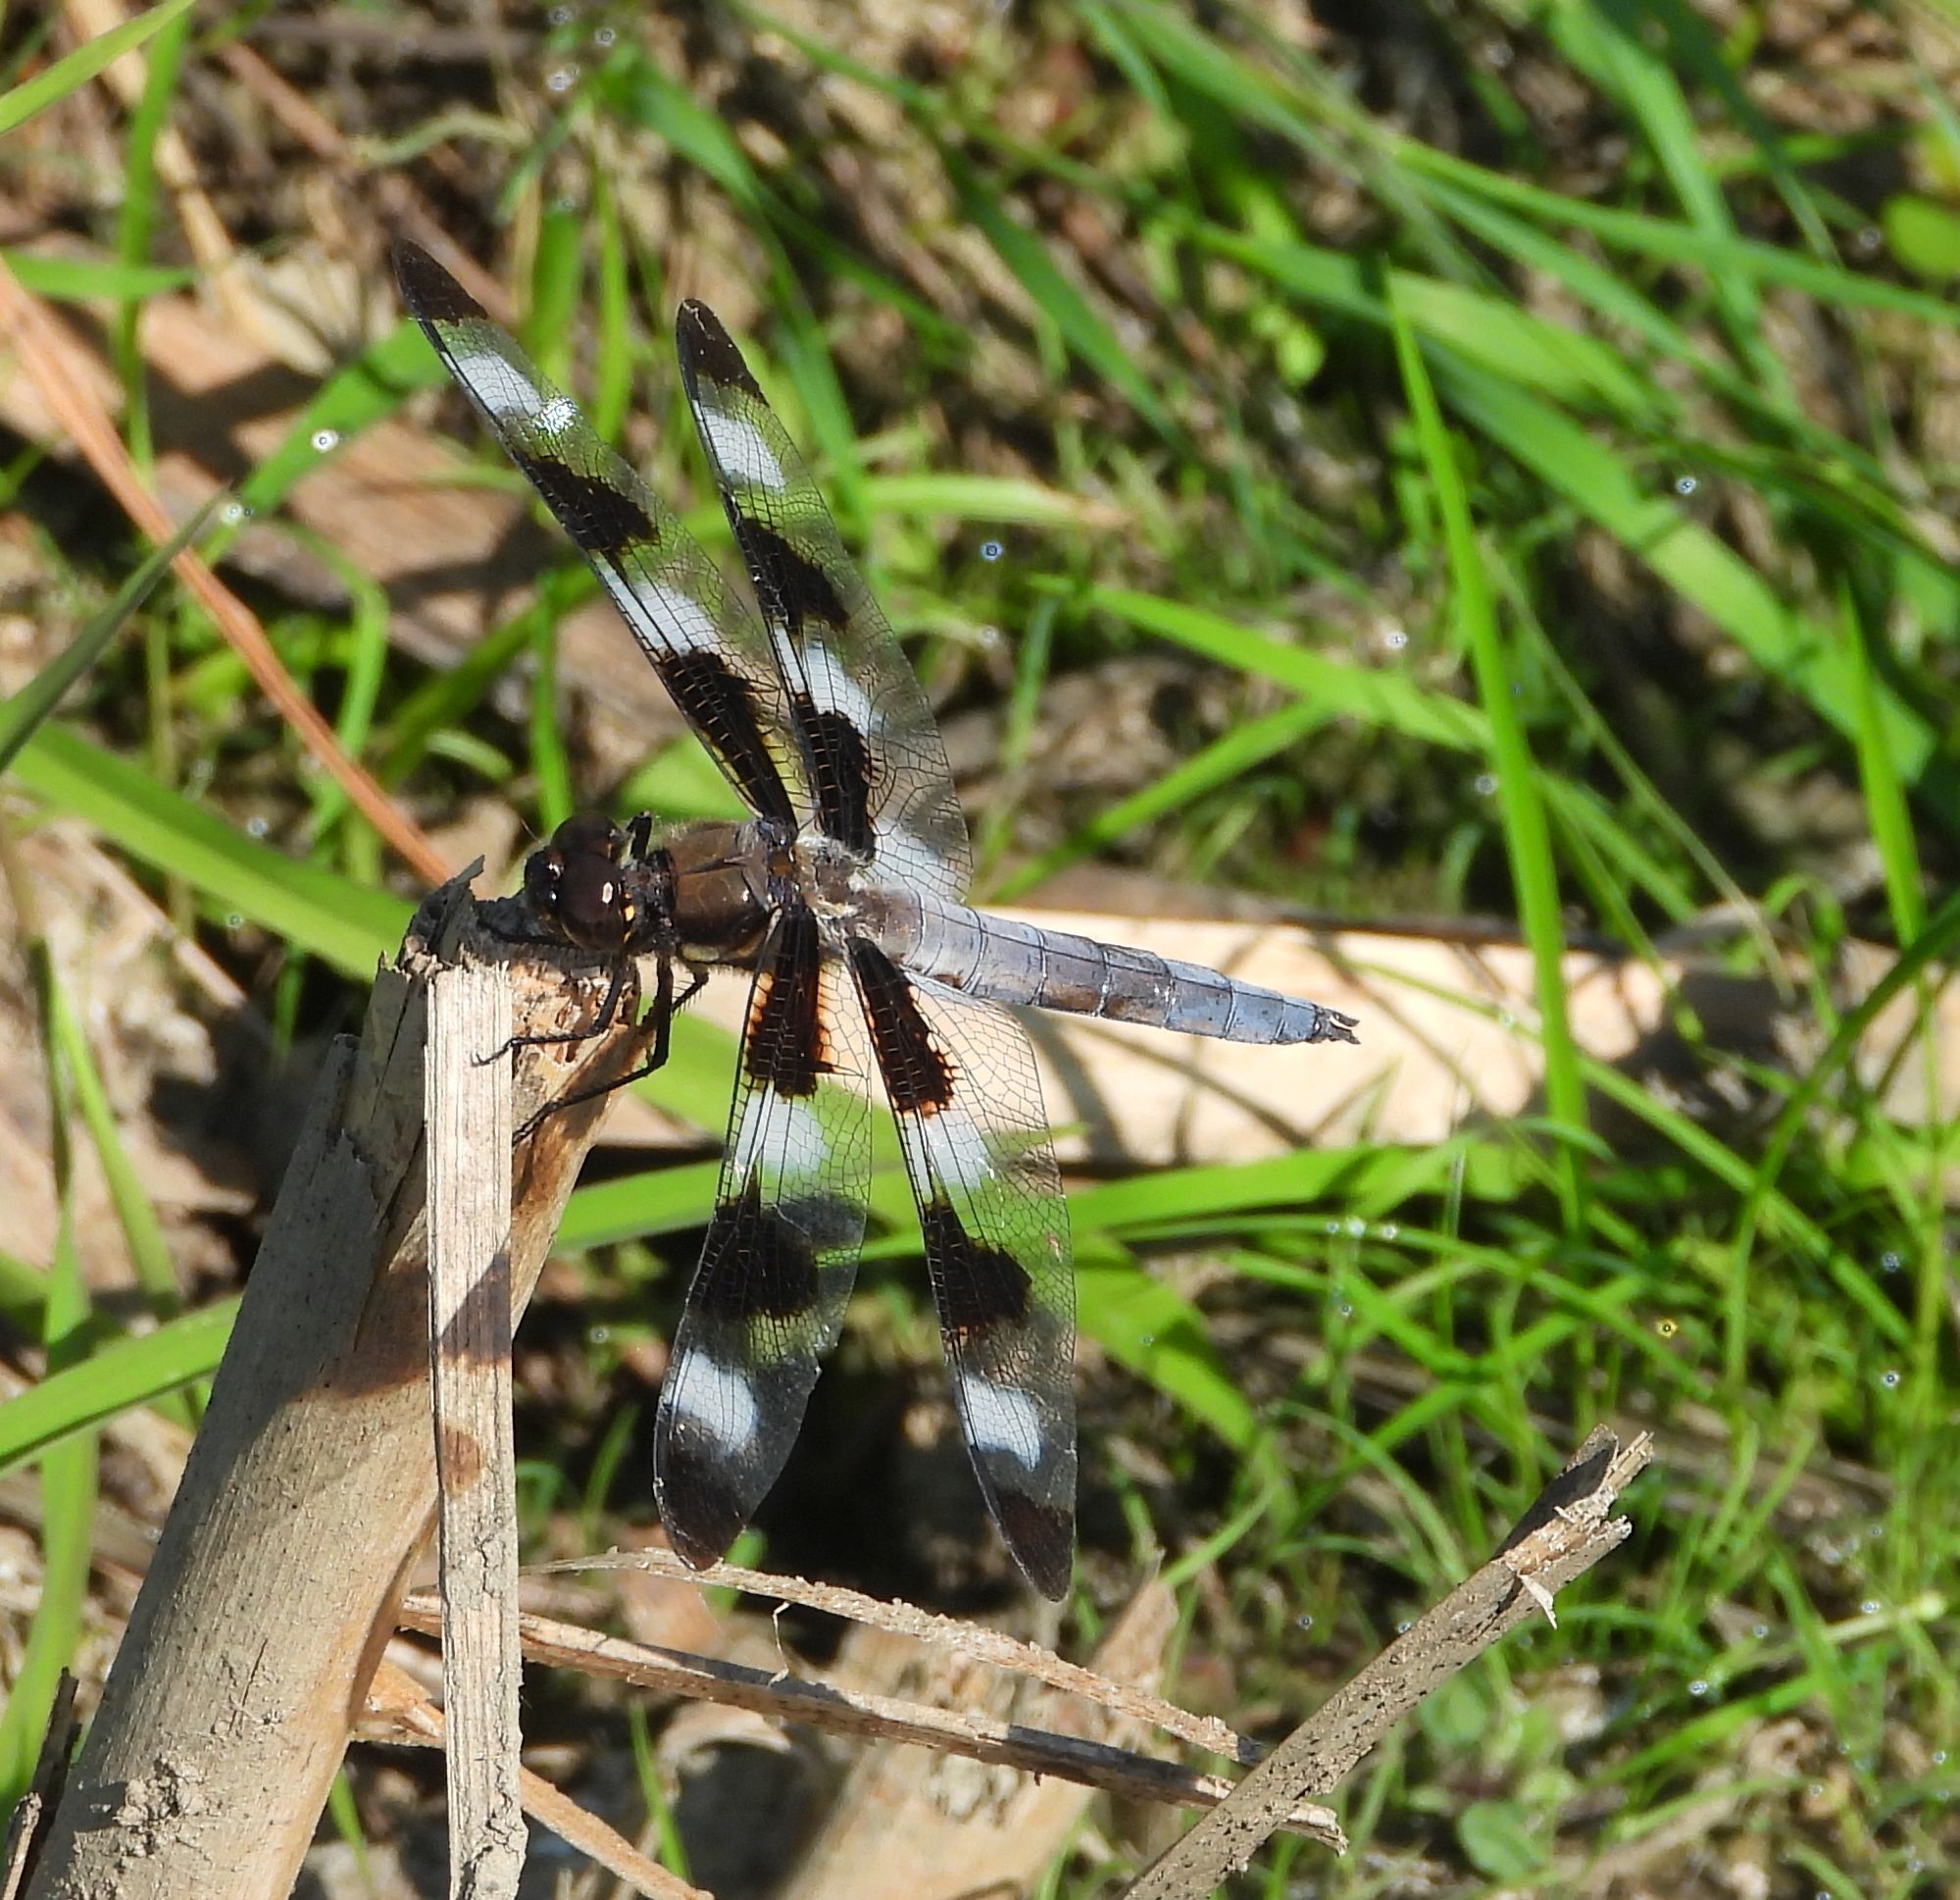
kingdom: Animalia
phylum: Arthropoda
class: Insecta
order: Odonata
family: Libellulidae
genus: Libellula
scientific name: Libellula pulchella
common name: Twelve-spotted skimmer
